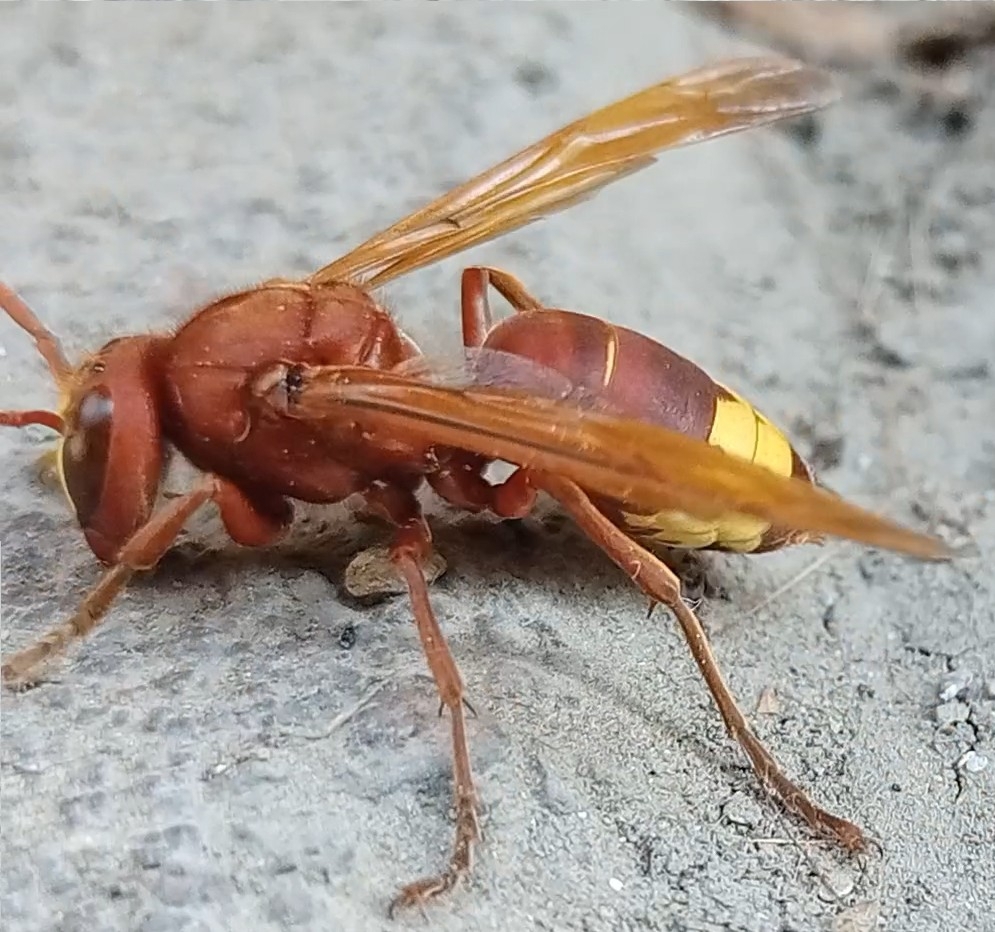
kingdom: Animalia
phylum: Arthropoda
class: Insecta
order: Hymenoptera
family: Vespidae
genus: Vespa
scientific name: Vespa orientalis
